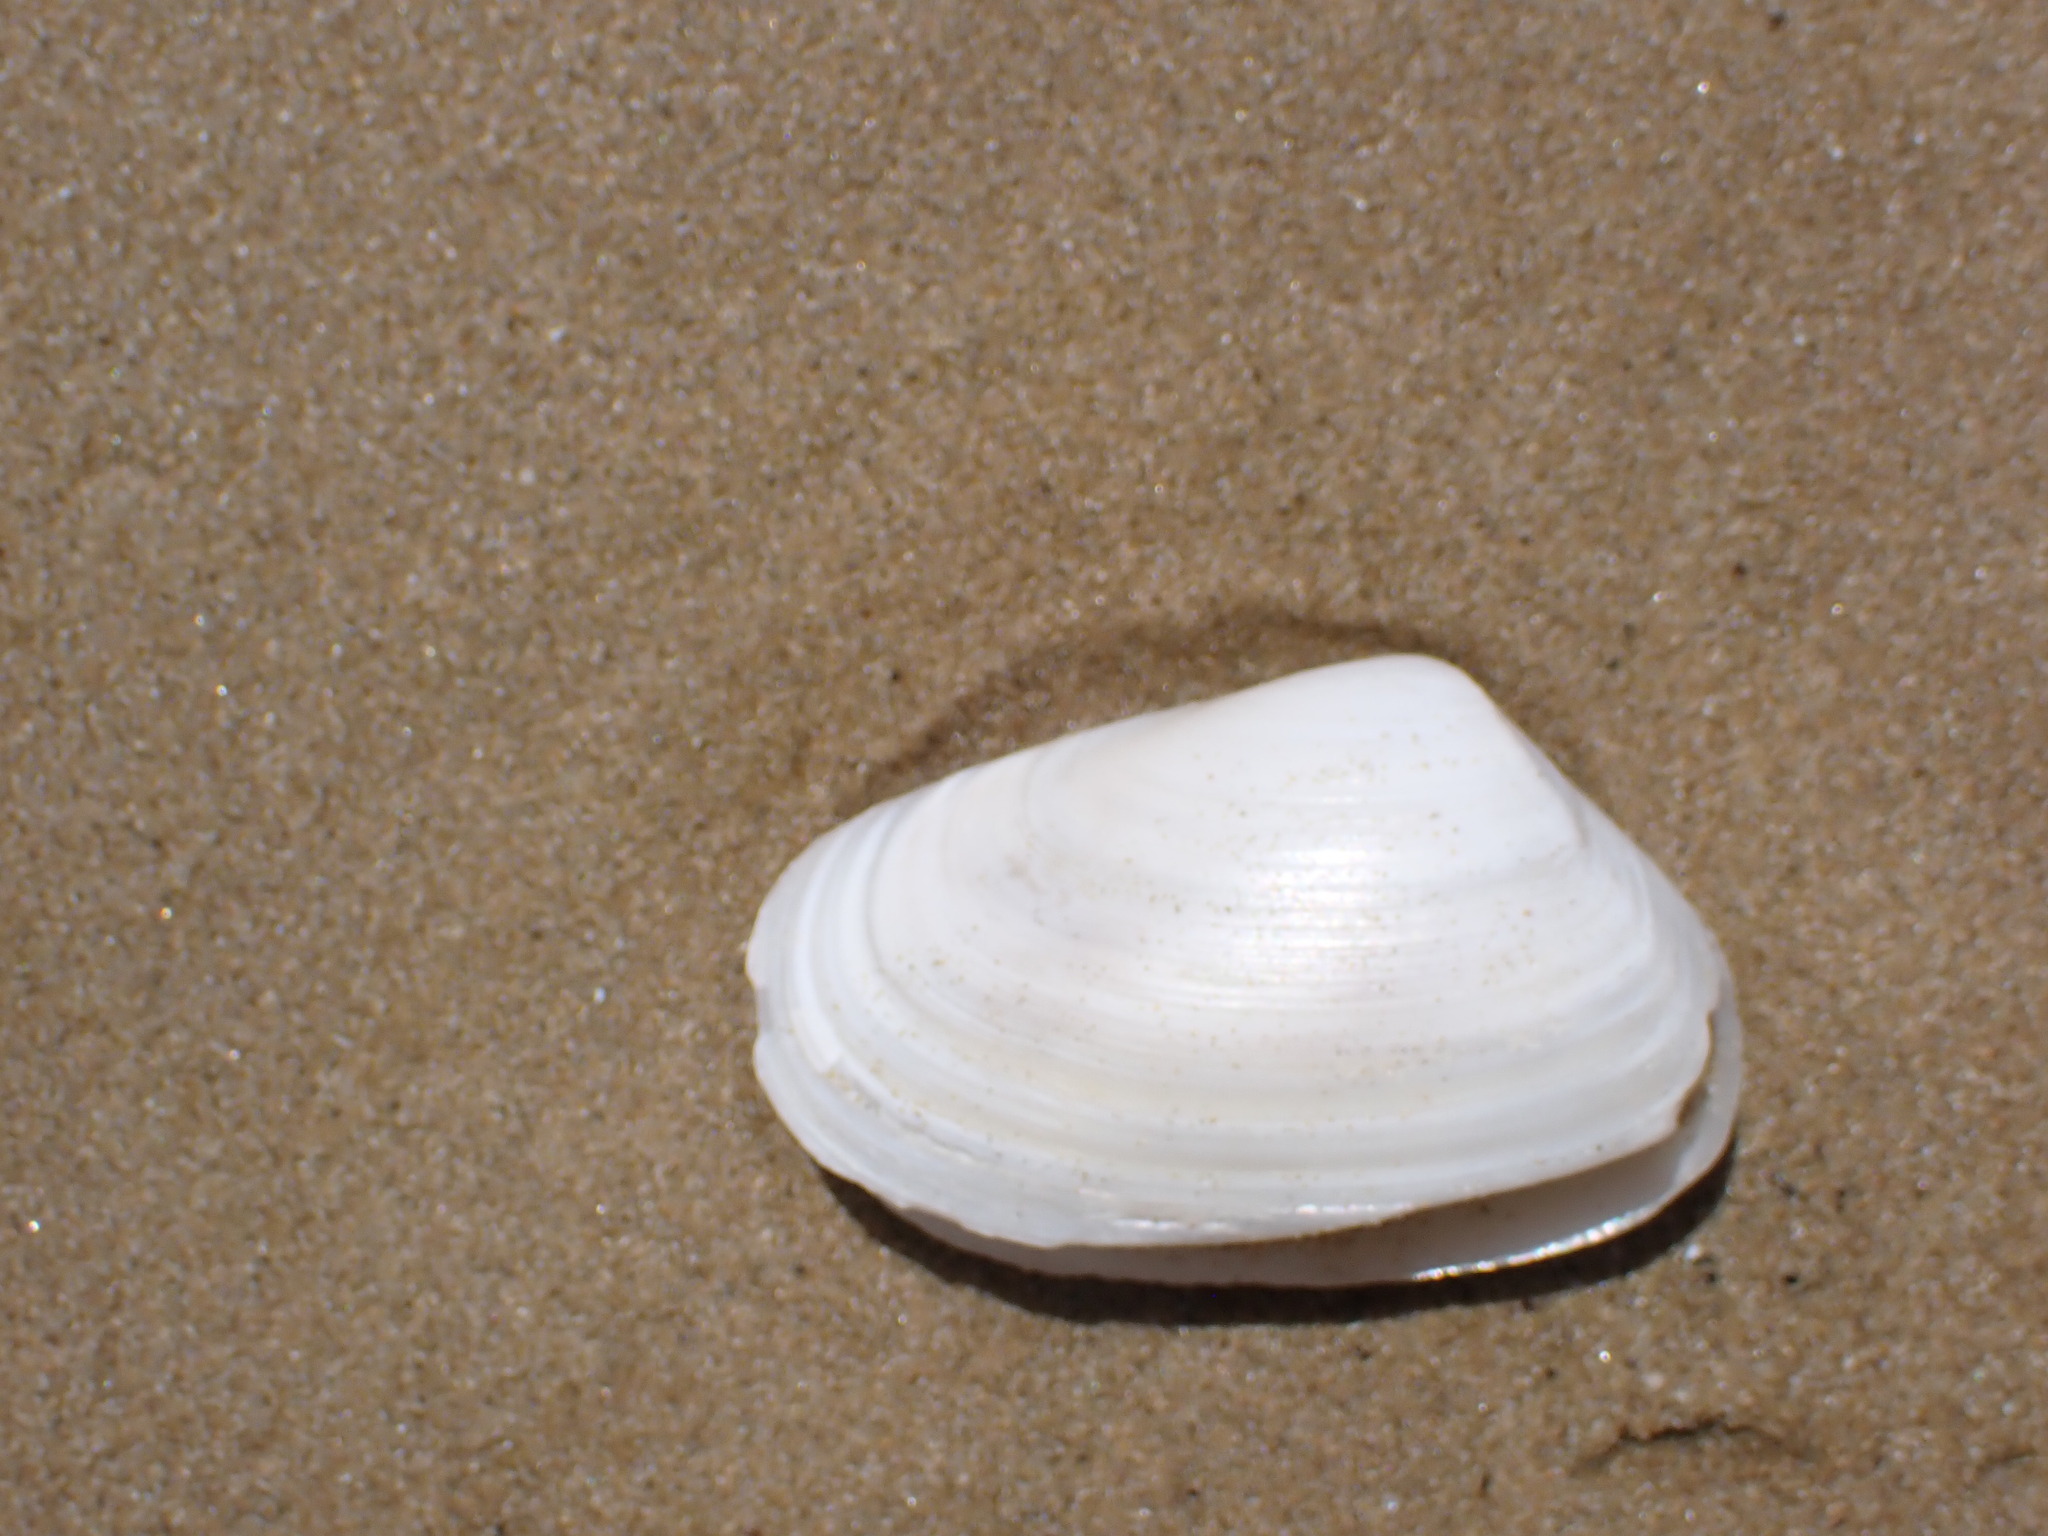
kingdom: Animalia
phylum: Mollusca
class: Bivalvia
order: Venerida
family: Mesodesmatidae
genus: Paphies
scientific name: Paphies subtriangulata
